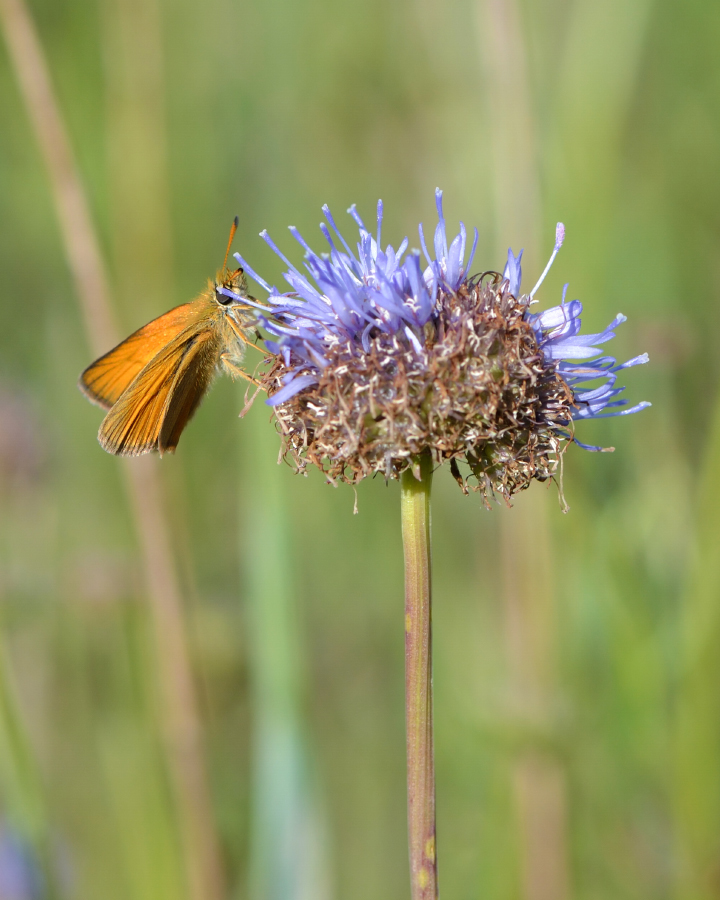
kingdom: Animalia
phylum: Arthropoda
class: Insecta
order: Lepidoptera
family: Hesperiidae
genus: Thymelicus
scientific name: Thymelicus lineola
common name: Essex skipper
